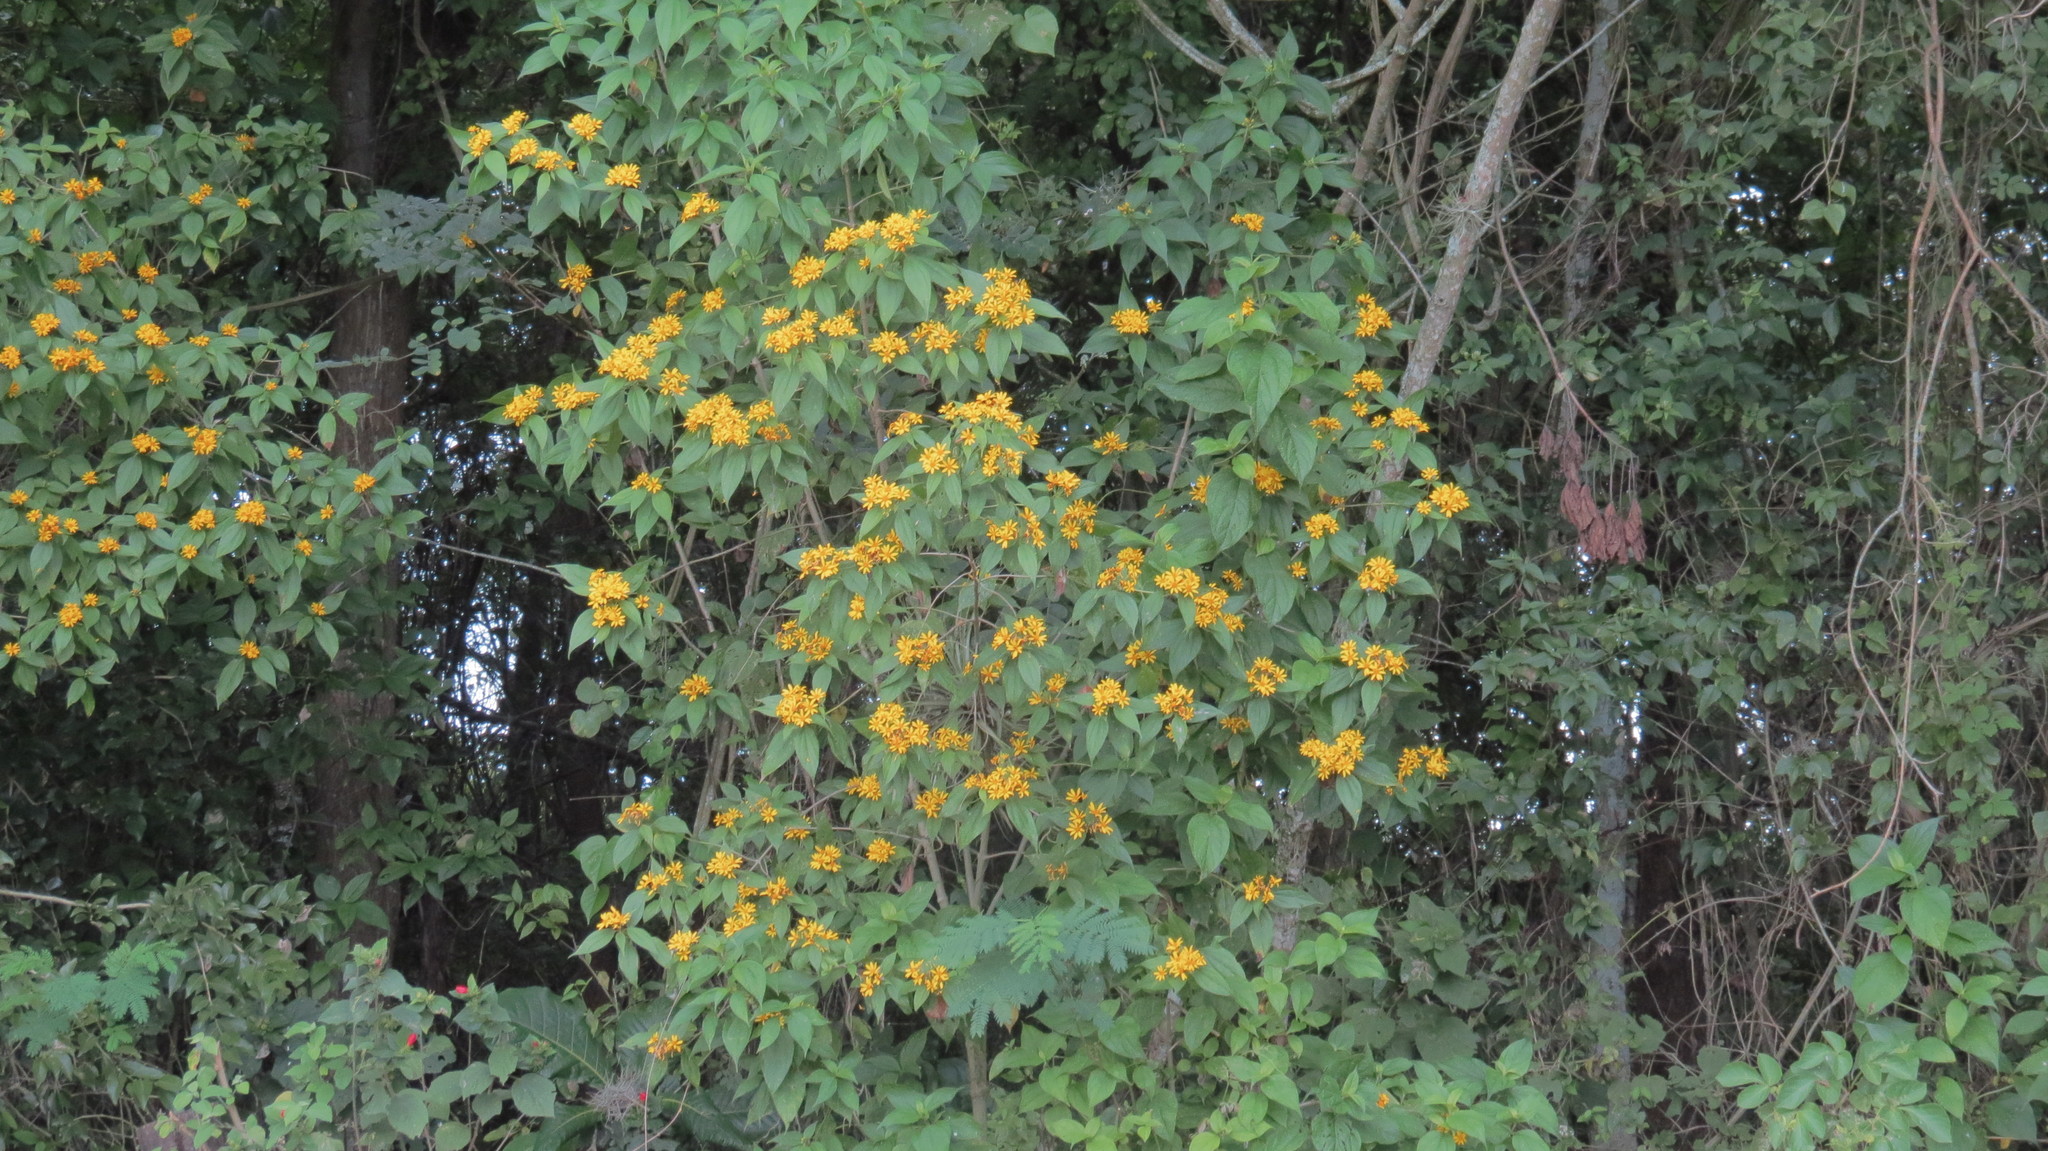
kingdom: Plantae
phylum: Tracheophyta
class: Magnoliopsida
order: Asterales
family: Asteraceae
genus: Lasianthaea
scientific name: Lasianthaea fruticosa
